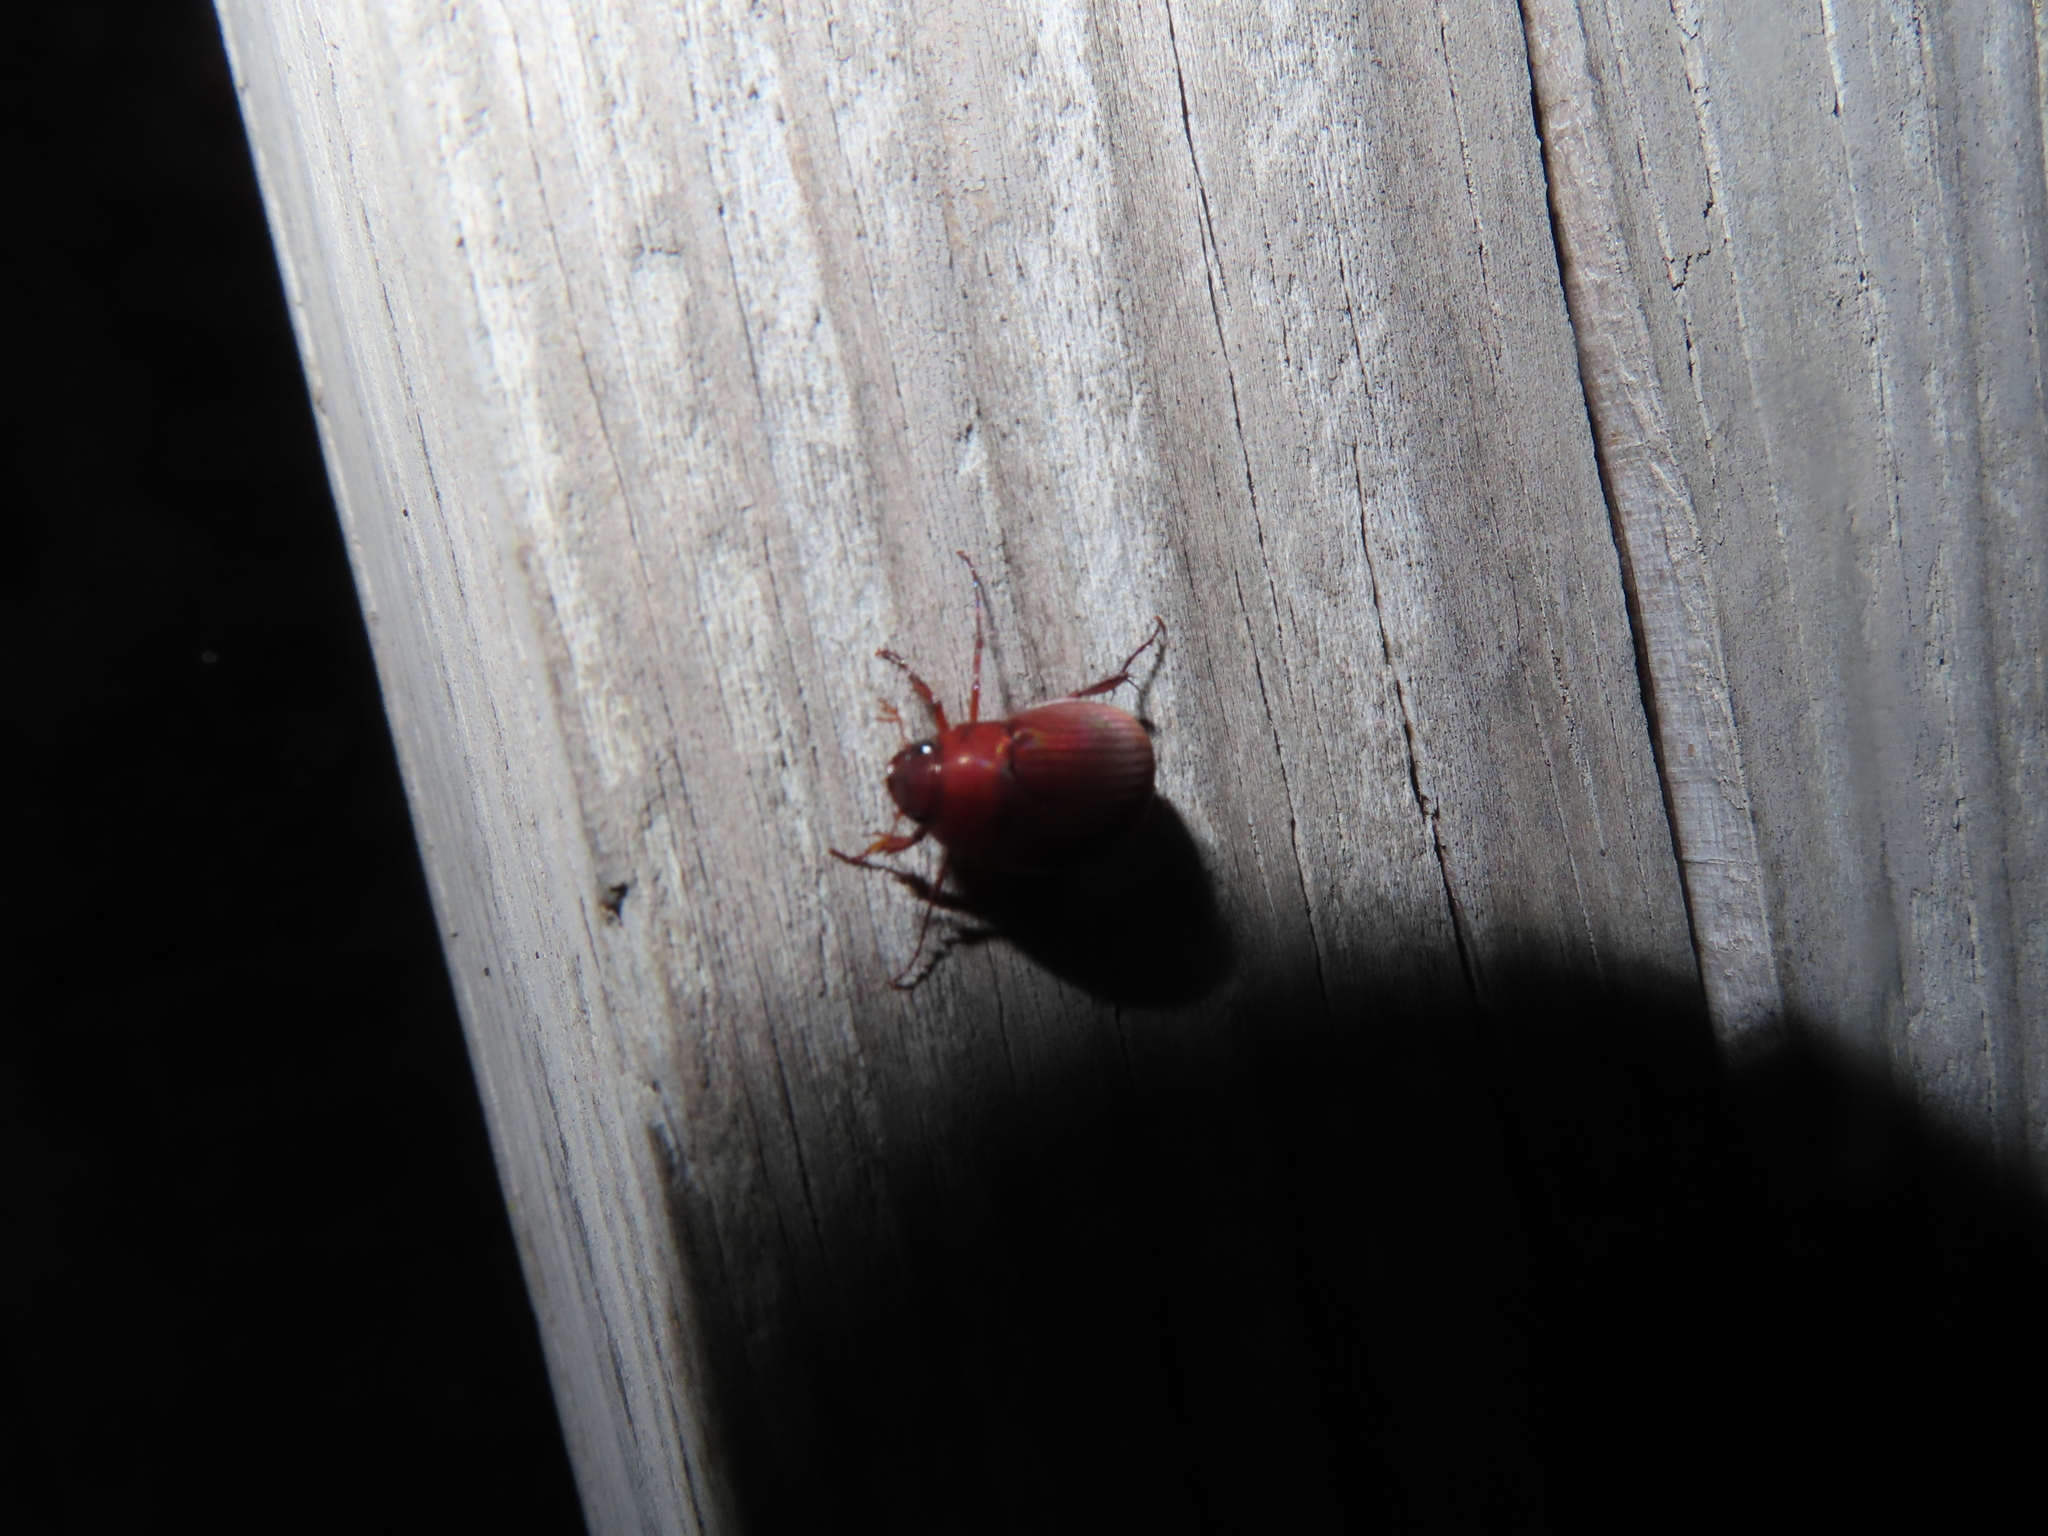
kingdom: Animalia
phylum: Arthropoda
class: Insecta
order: Coleoptera
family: Scarabaeidae
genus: Maladera
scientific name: Maladera formosae
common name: Asiatic garden beetle
